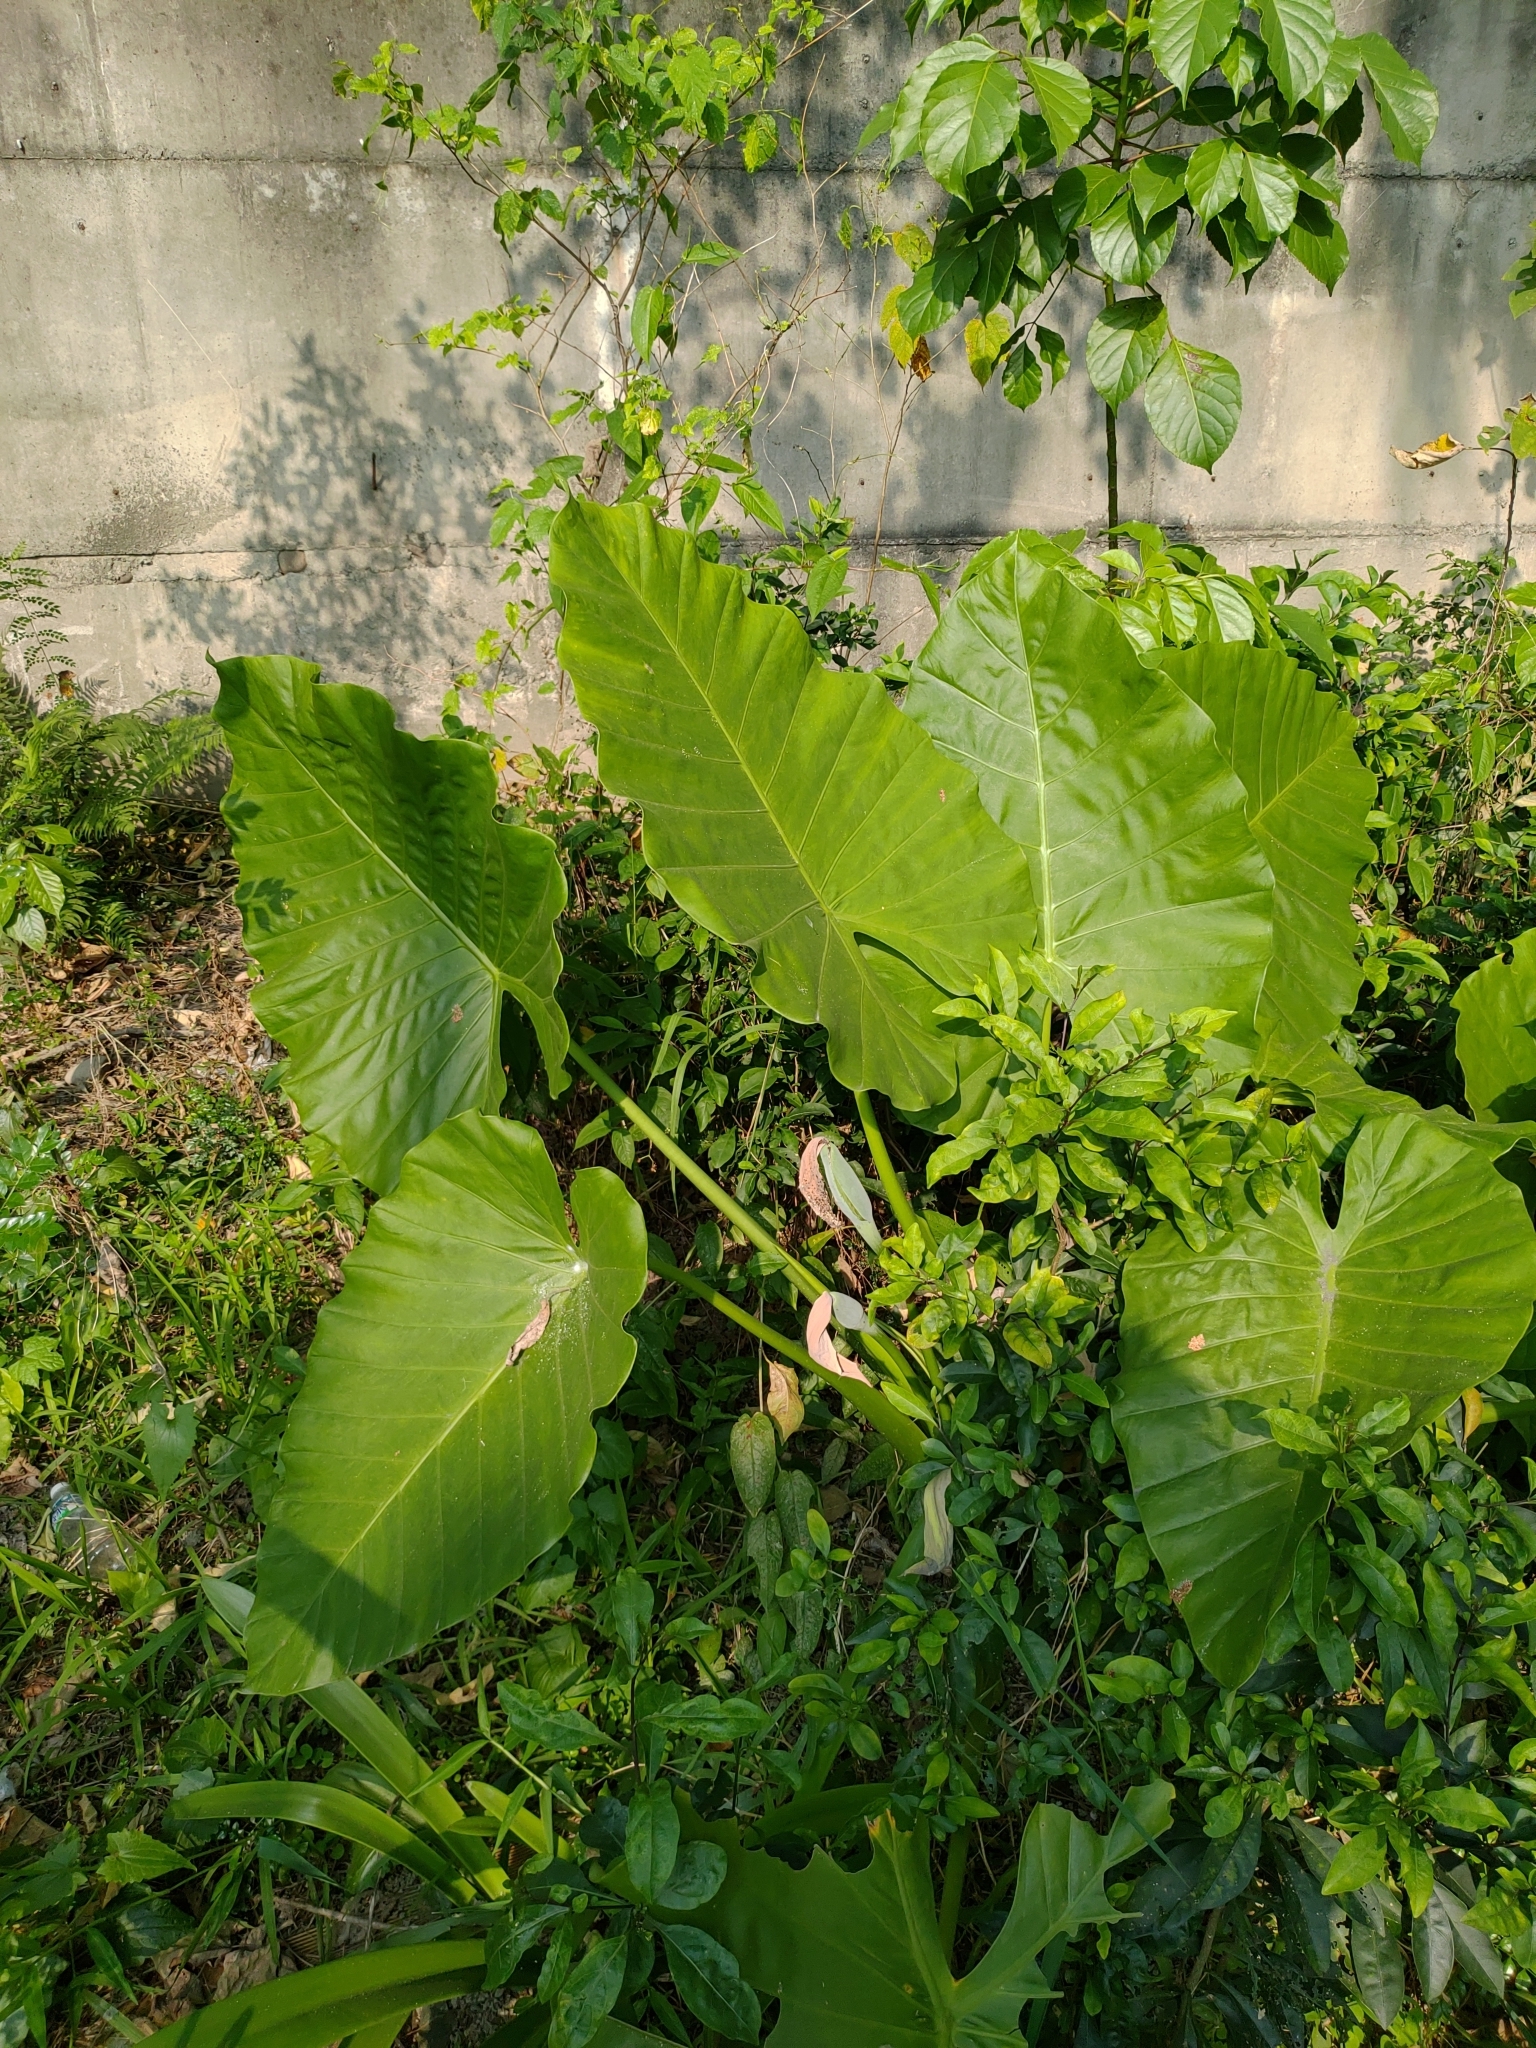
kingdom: Plantae
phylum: Tracheophyta
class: Liliopsida
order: Alismatales
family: Araceae
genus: Alocasia
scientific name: Alocasia odora
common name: Asian taro
